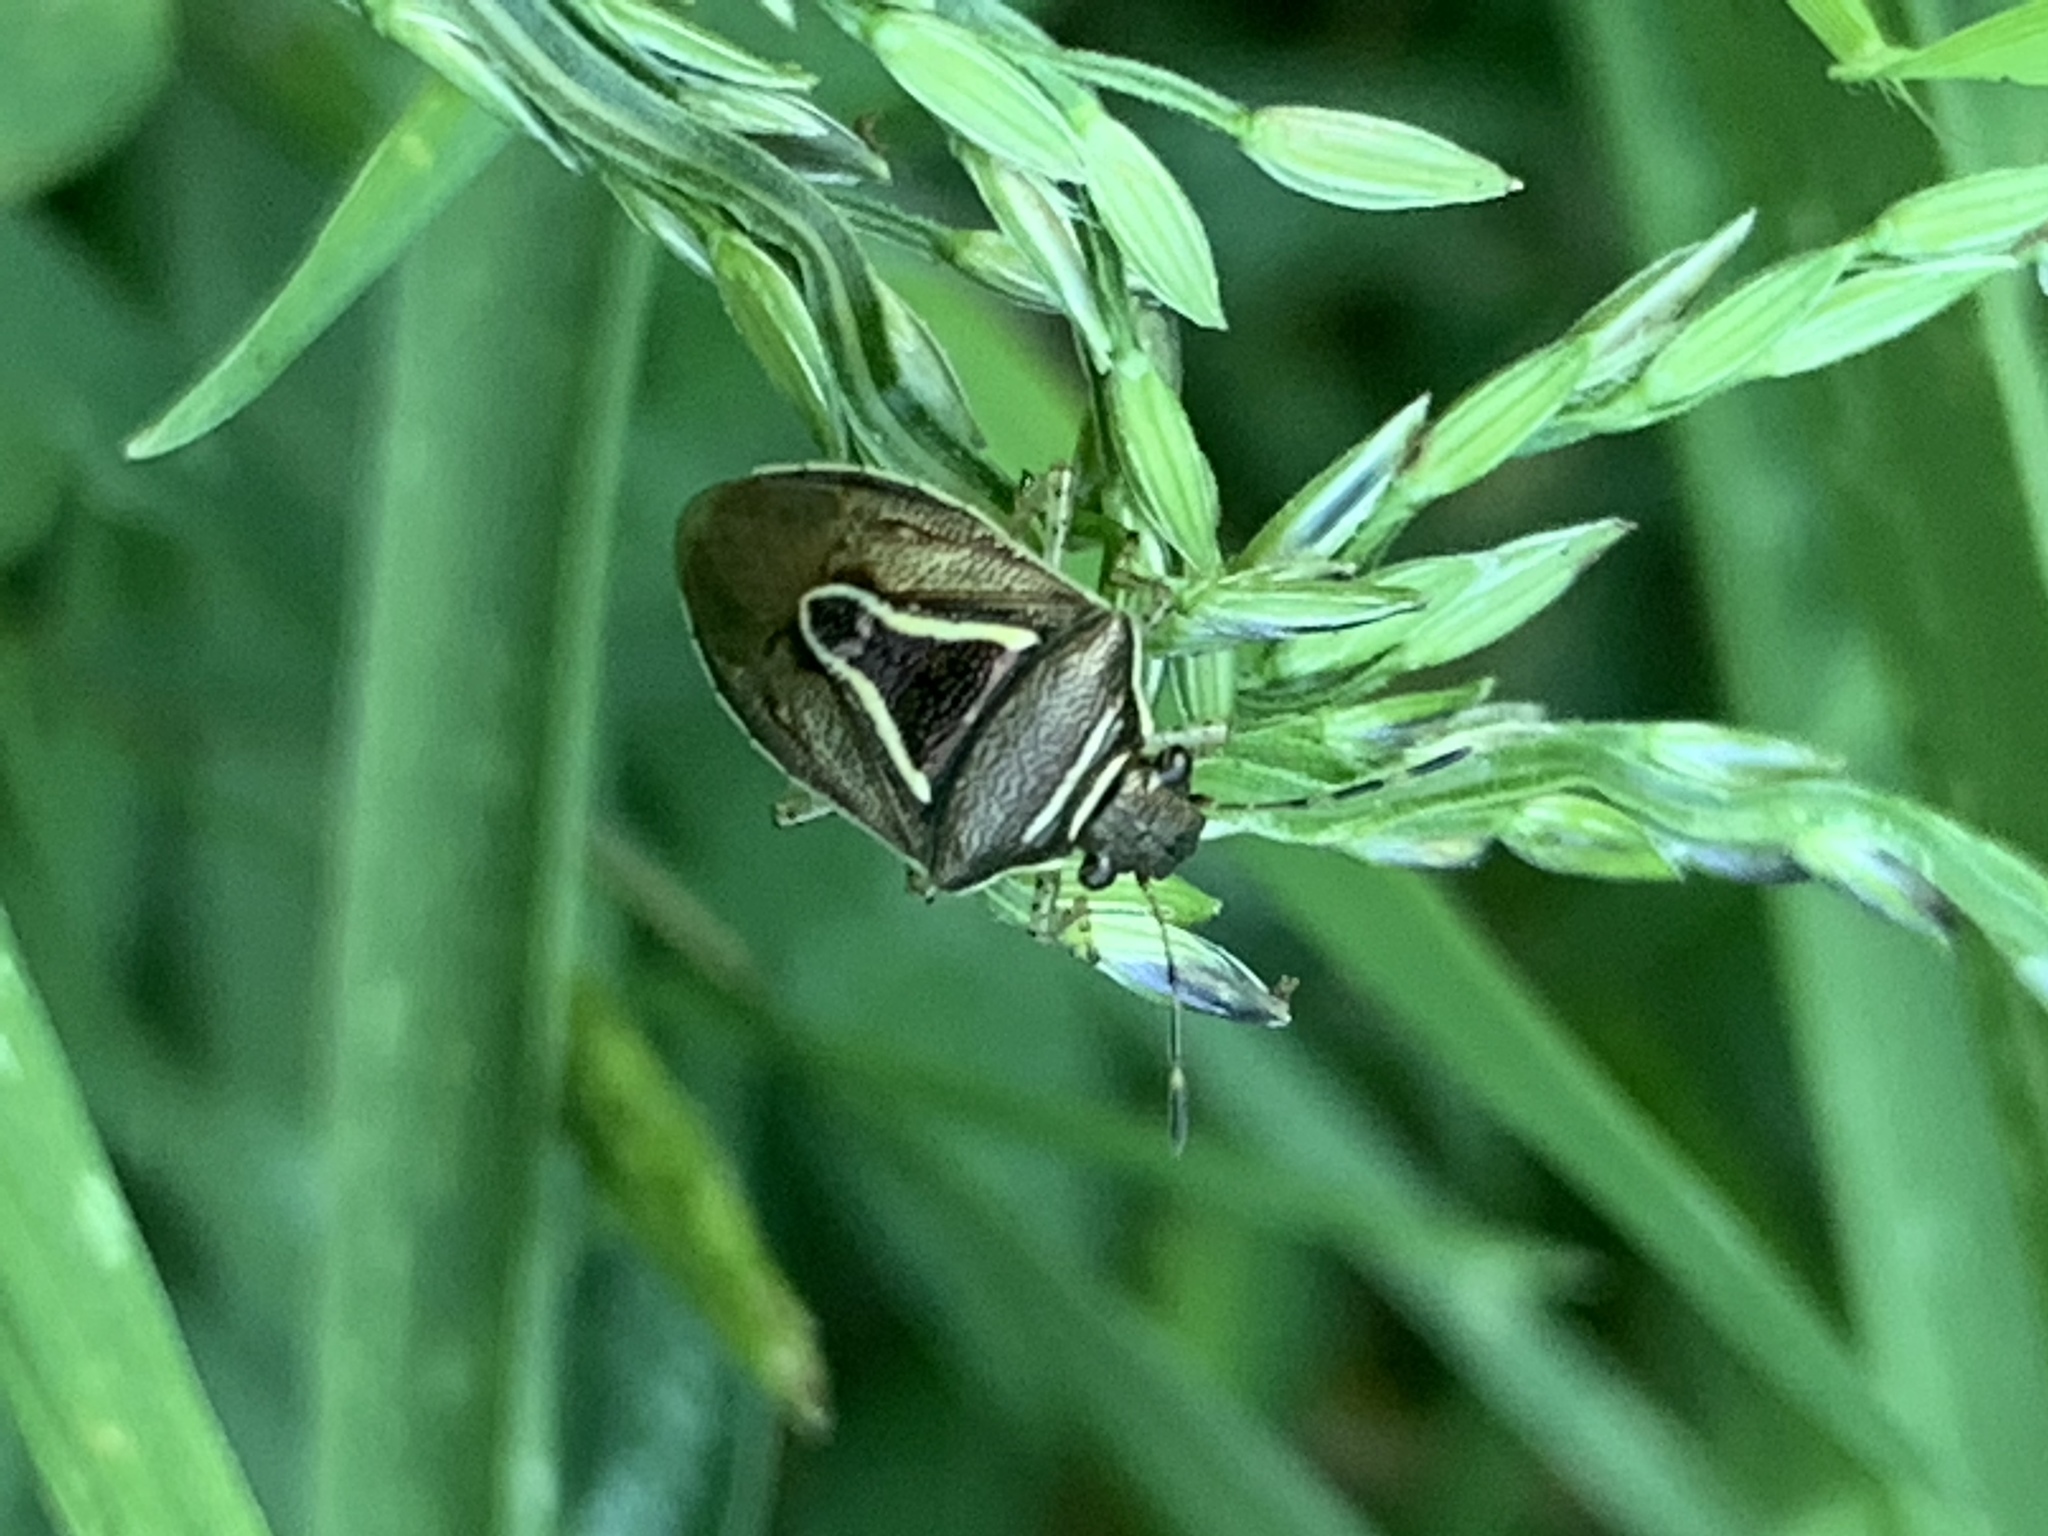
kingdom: Animalia
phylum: Arthropoda
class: Insecta
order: Hemiptera
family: Pentatomidae
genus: Mormidea
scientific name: Mormidea lugens
